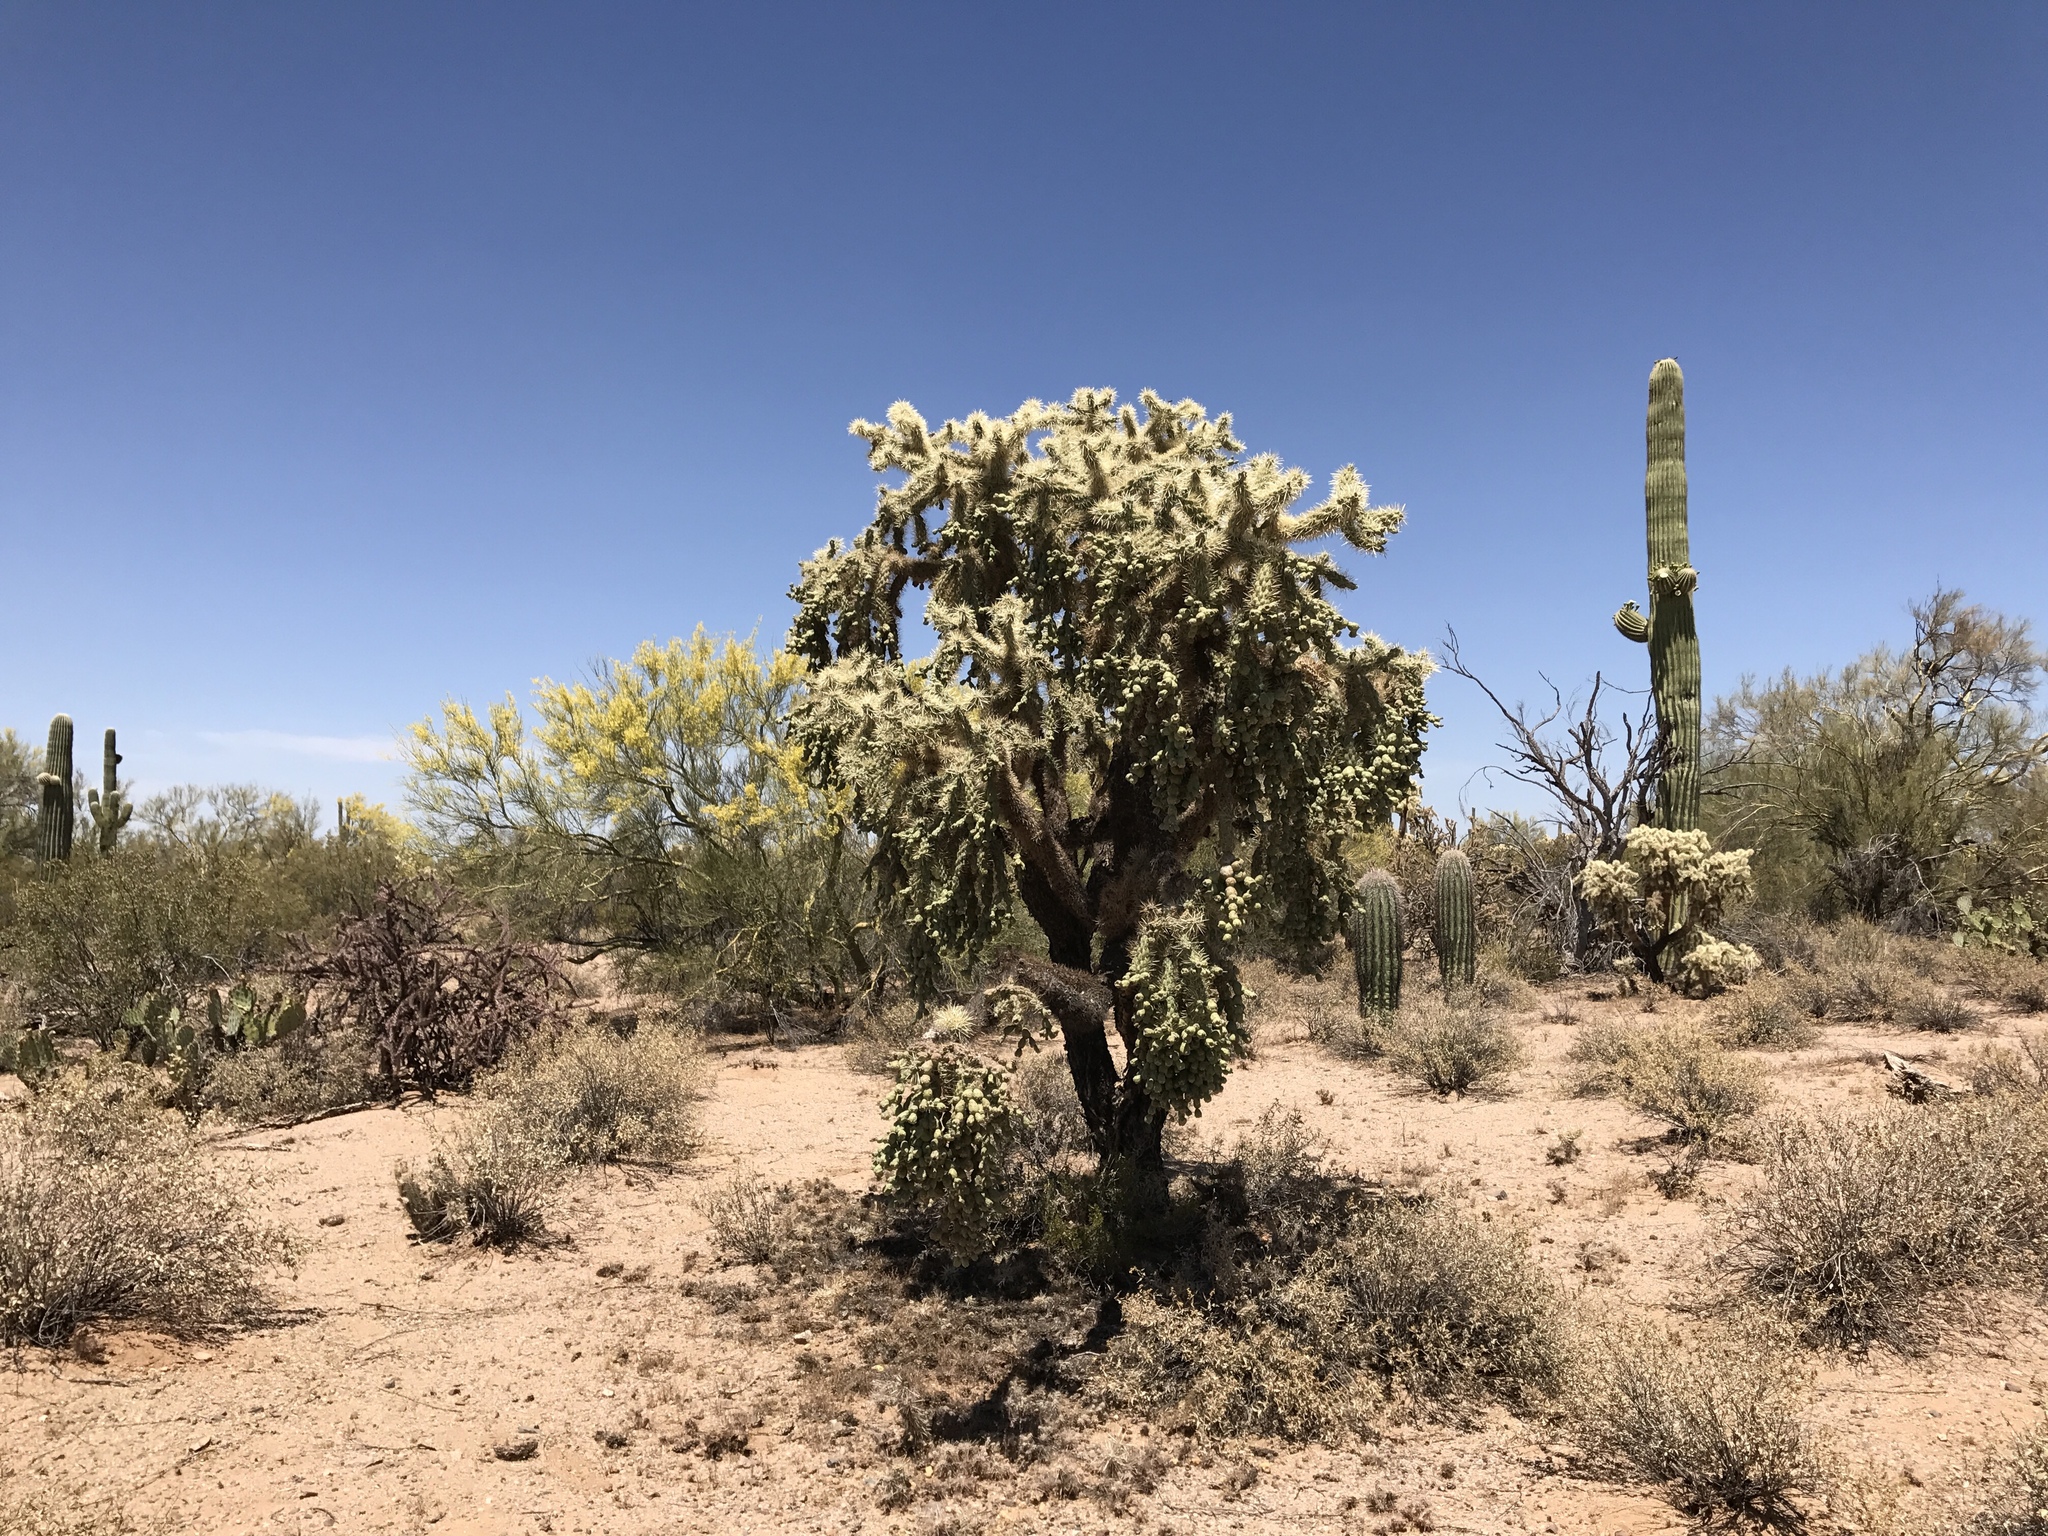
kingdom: Plantae
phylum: Tracheophyta
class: Magnoliopsida
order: Caryophyllales
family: Cactaceae
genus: Cylindropuntia
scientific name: Cylindropuntia fulgida
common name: Jumping cholla
